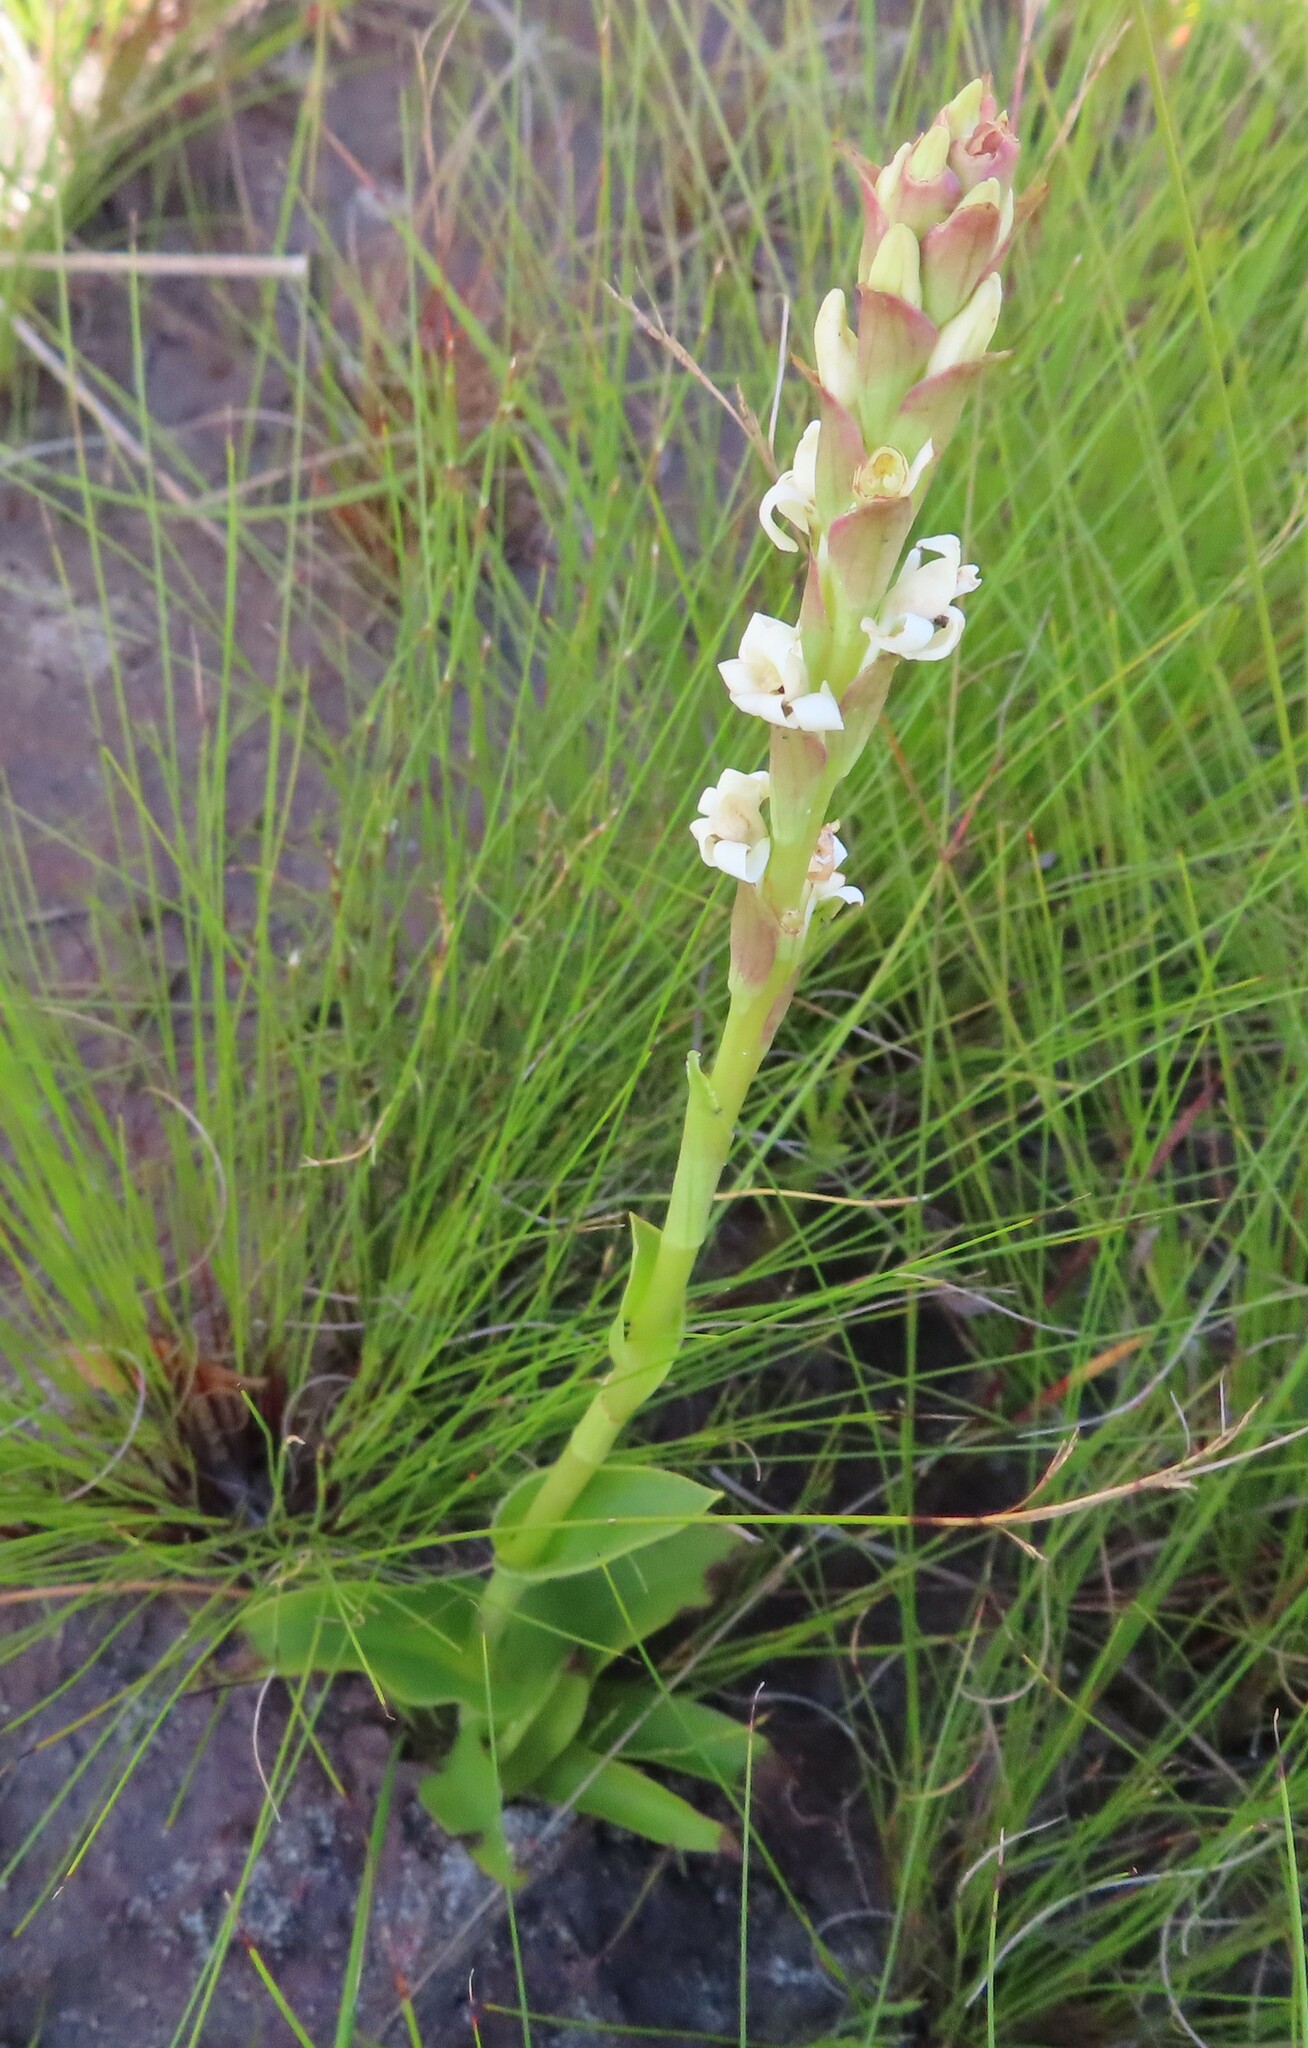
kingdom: Plantae
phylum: Tracheophyta
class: Liliopsida
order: Asparagales
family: Orchidaceae
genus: Satyrium
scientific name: Satyrium stenopetalum
